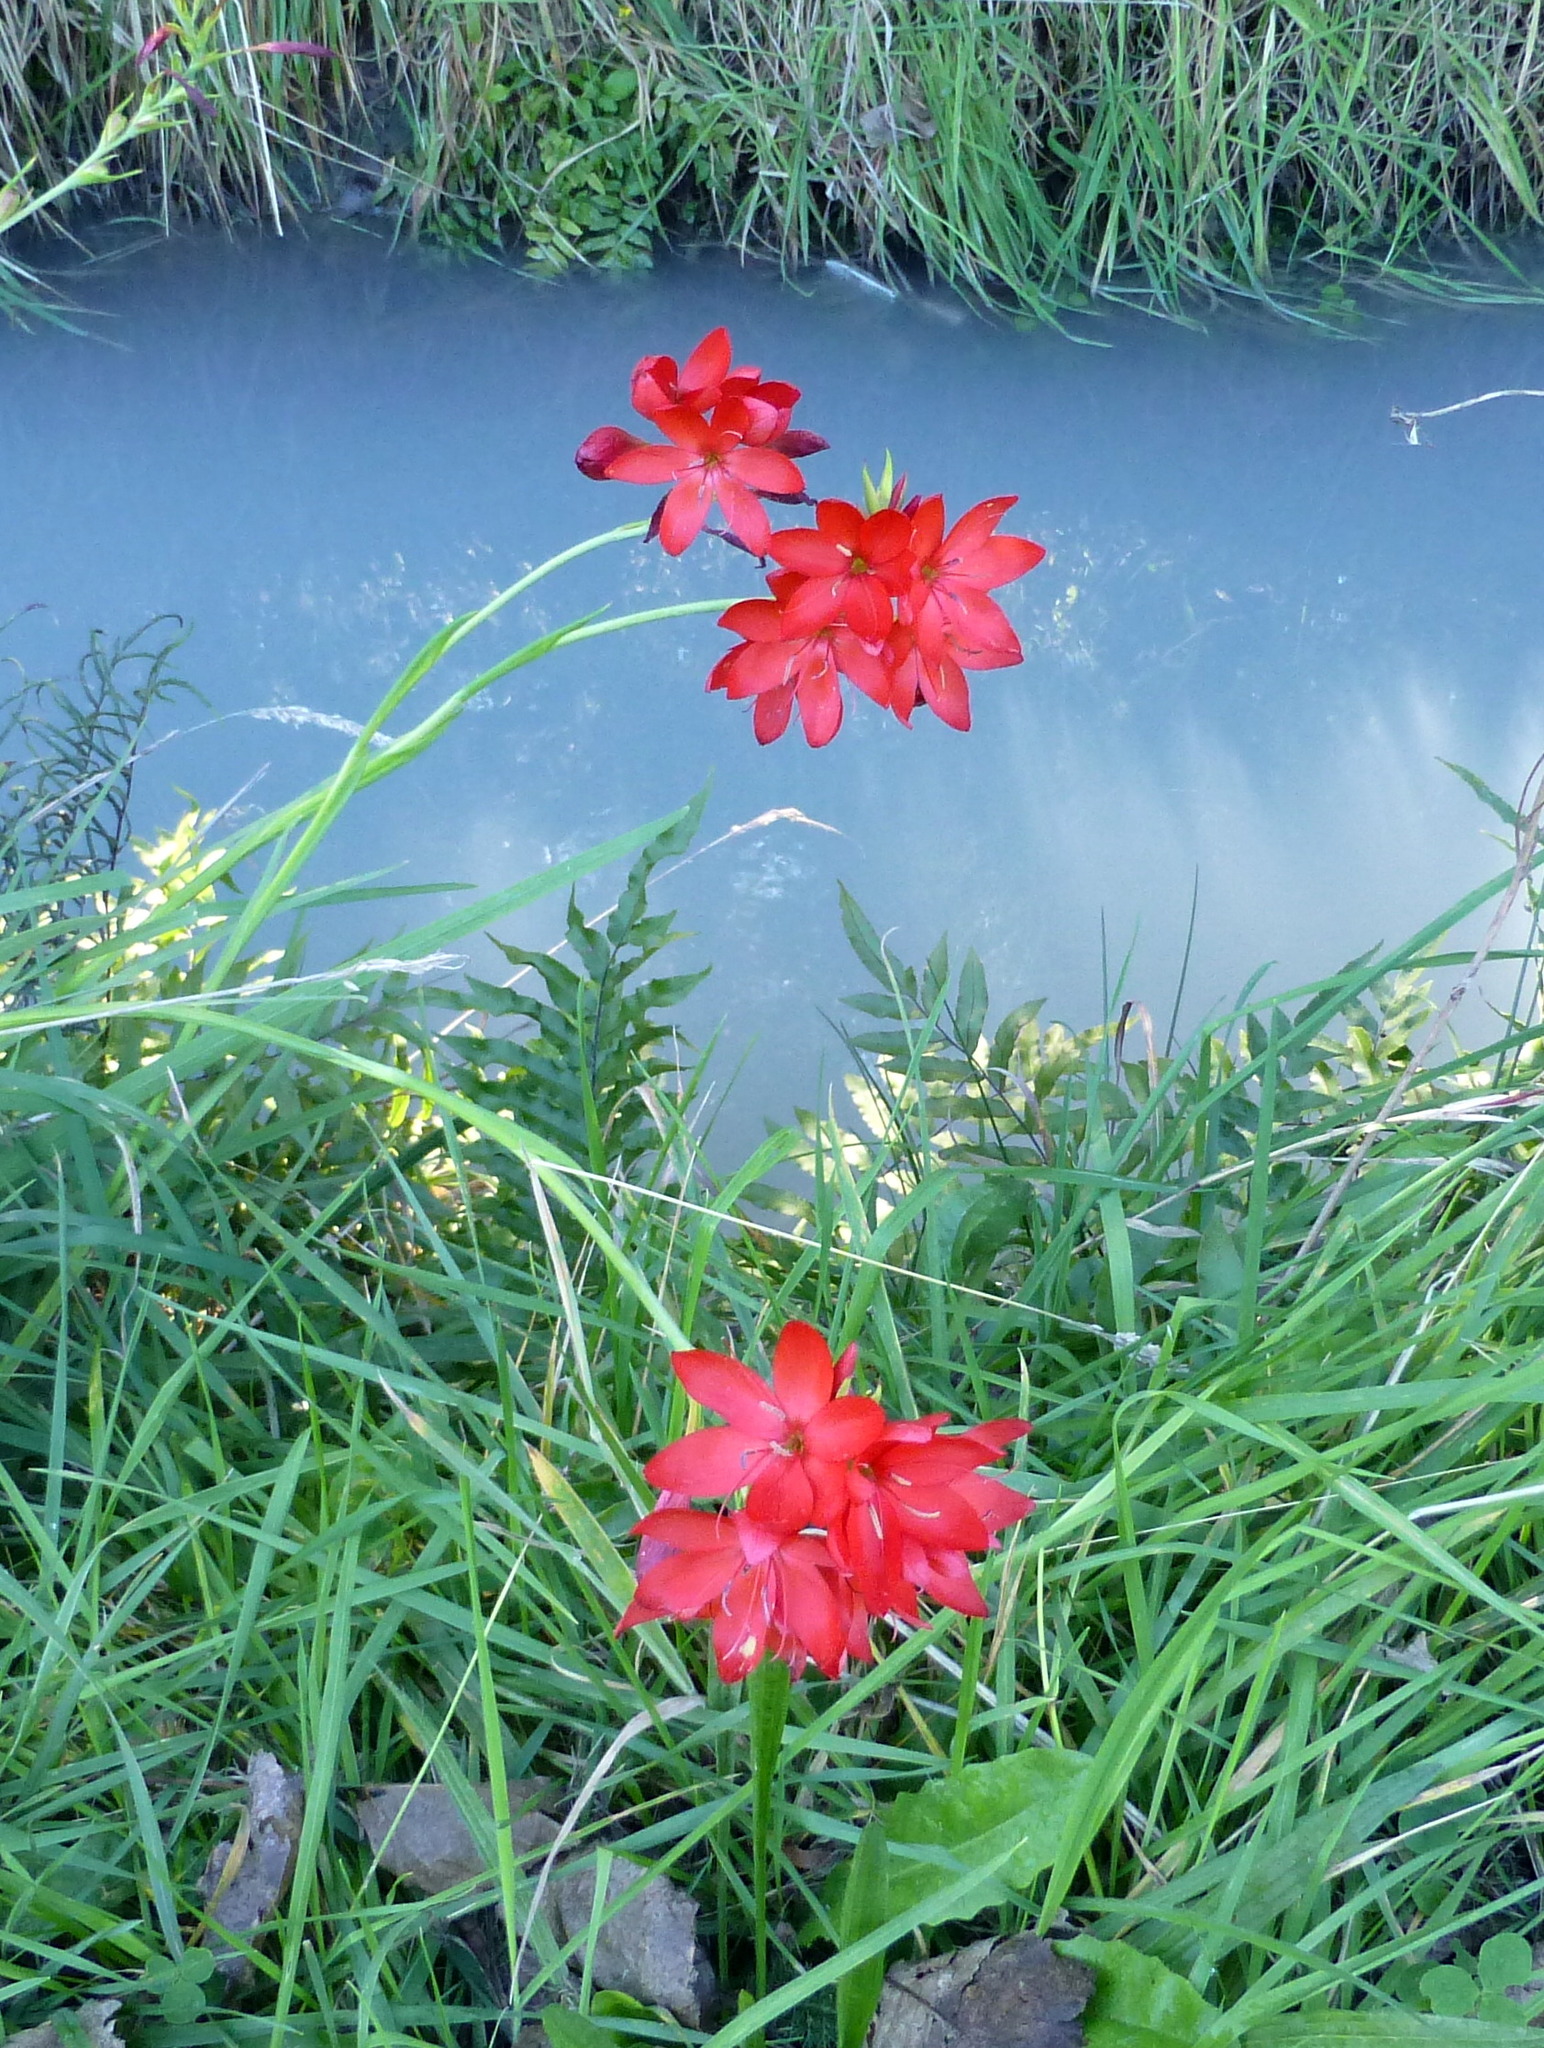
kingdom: Plantae
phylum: Tracheophyta
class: Liliopsida
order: Asparagales
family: Iridaceae
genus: Hesperantha
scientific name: Hesperantha coccinea
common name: River-lily
